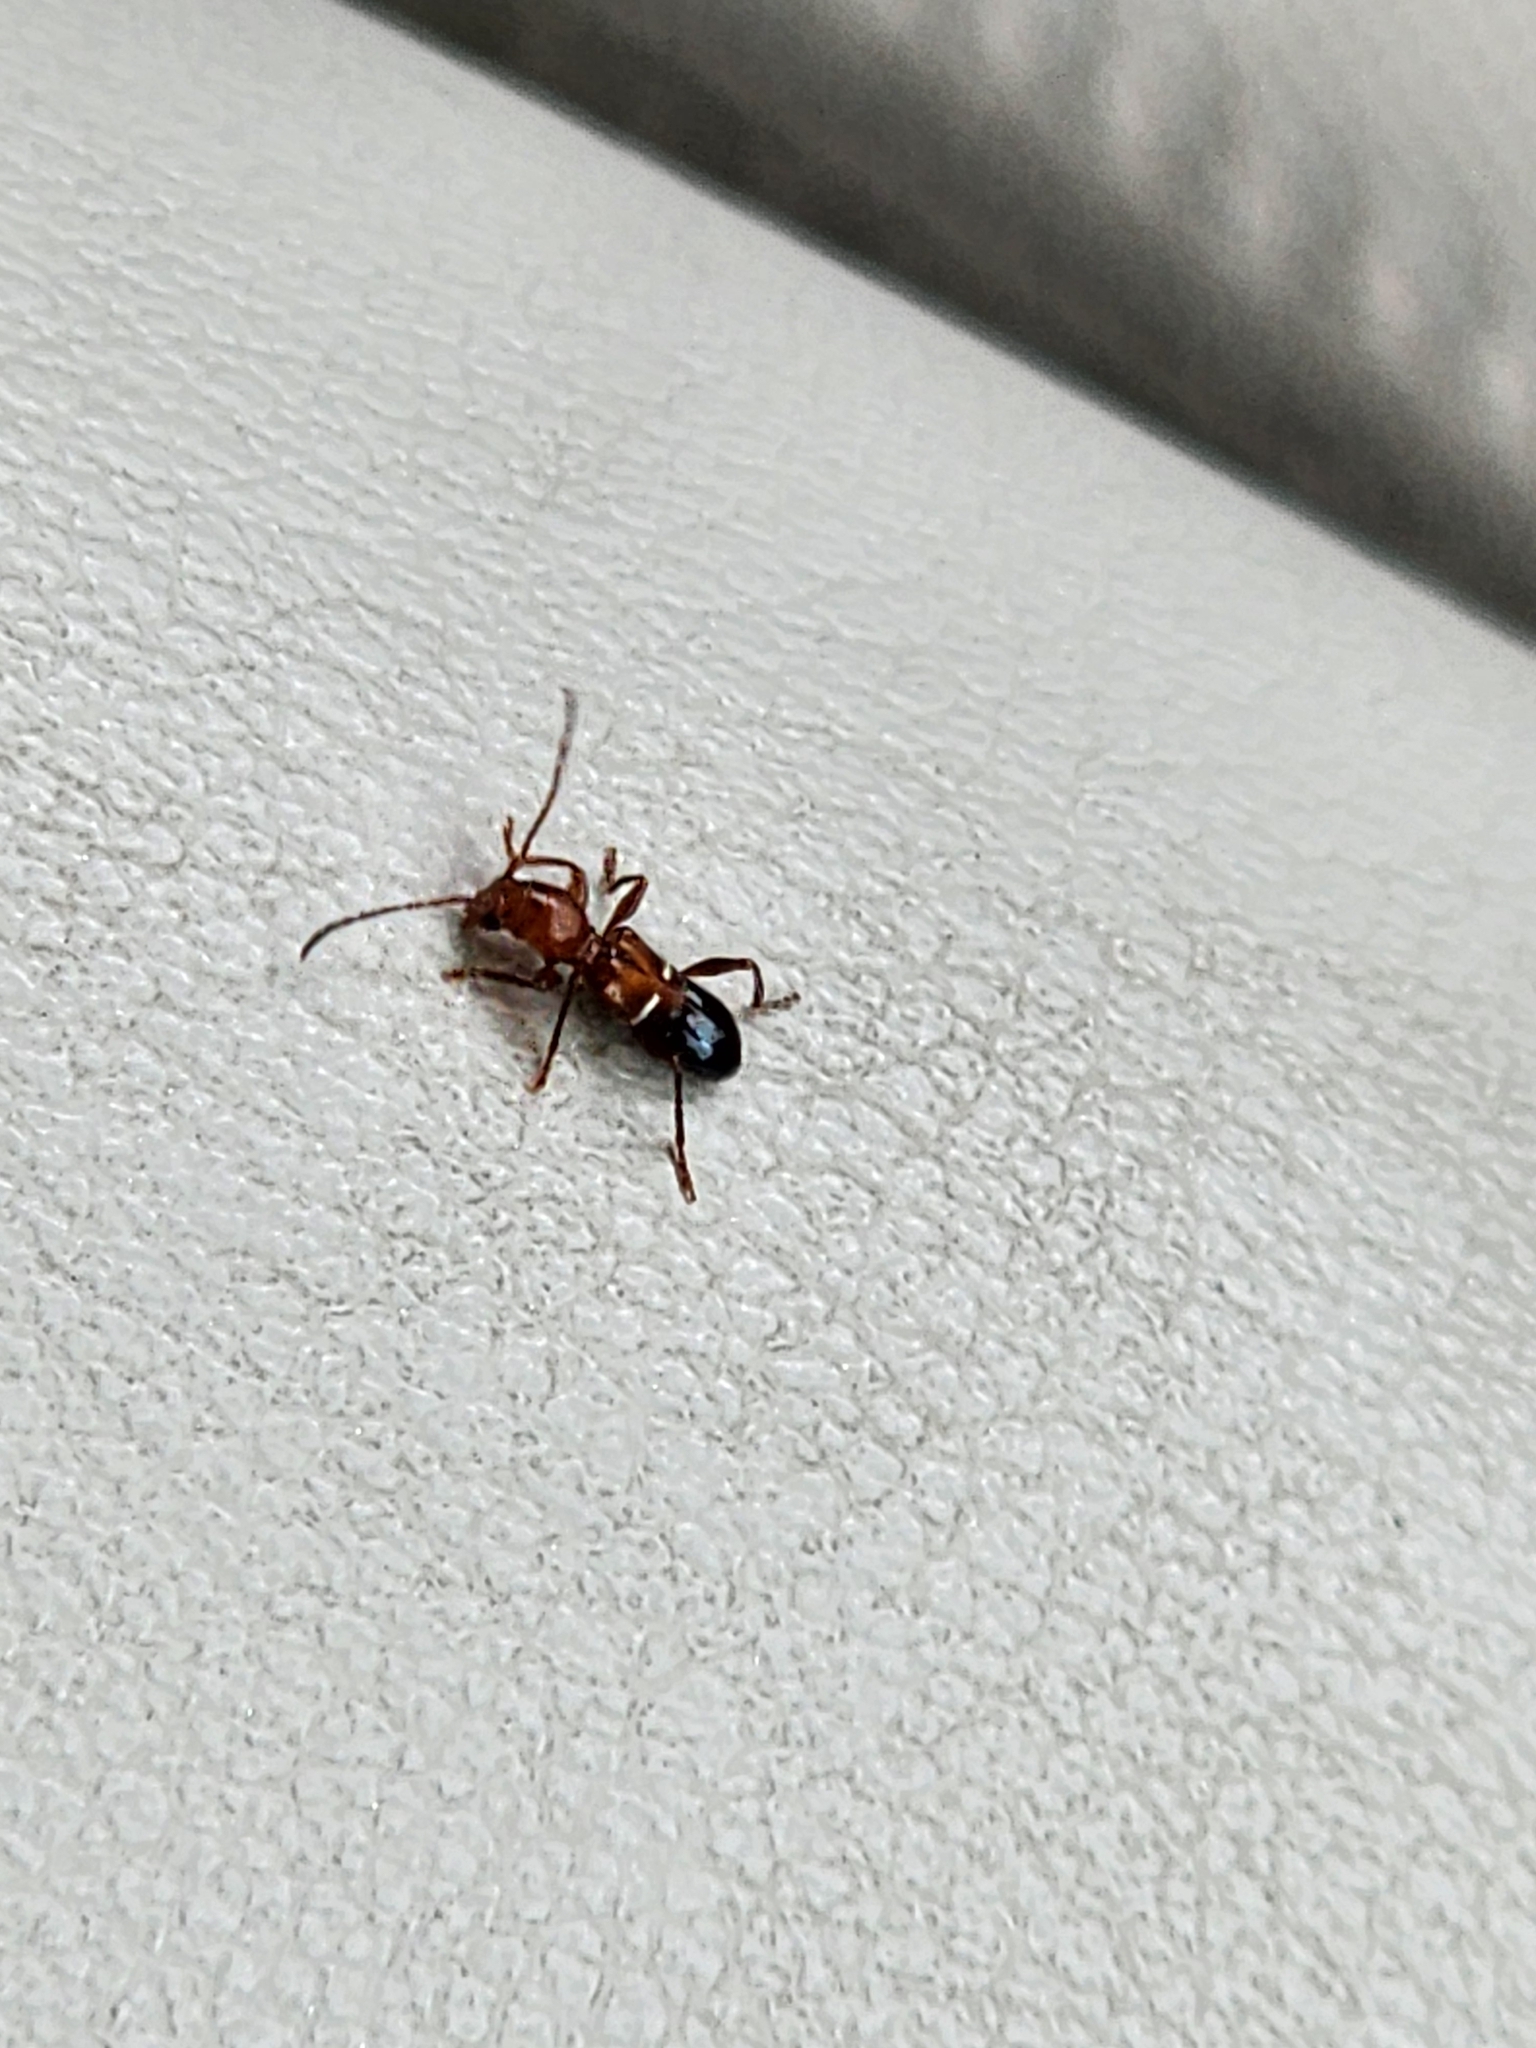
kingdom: Animalia
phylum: Arthropoda
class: Insecta
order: Coleoptera
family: Cerambycidae
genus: Euderces
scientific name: Euderces reichei
